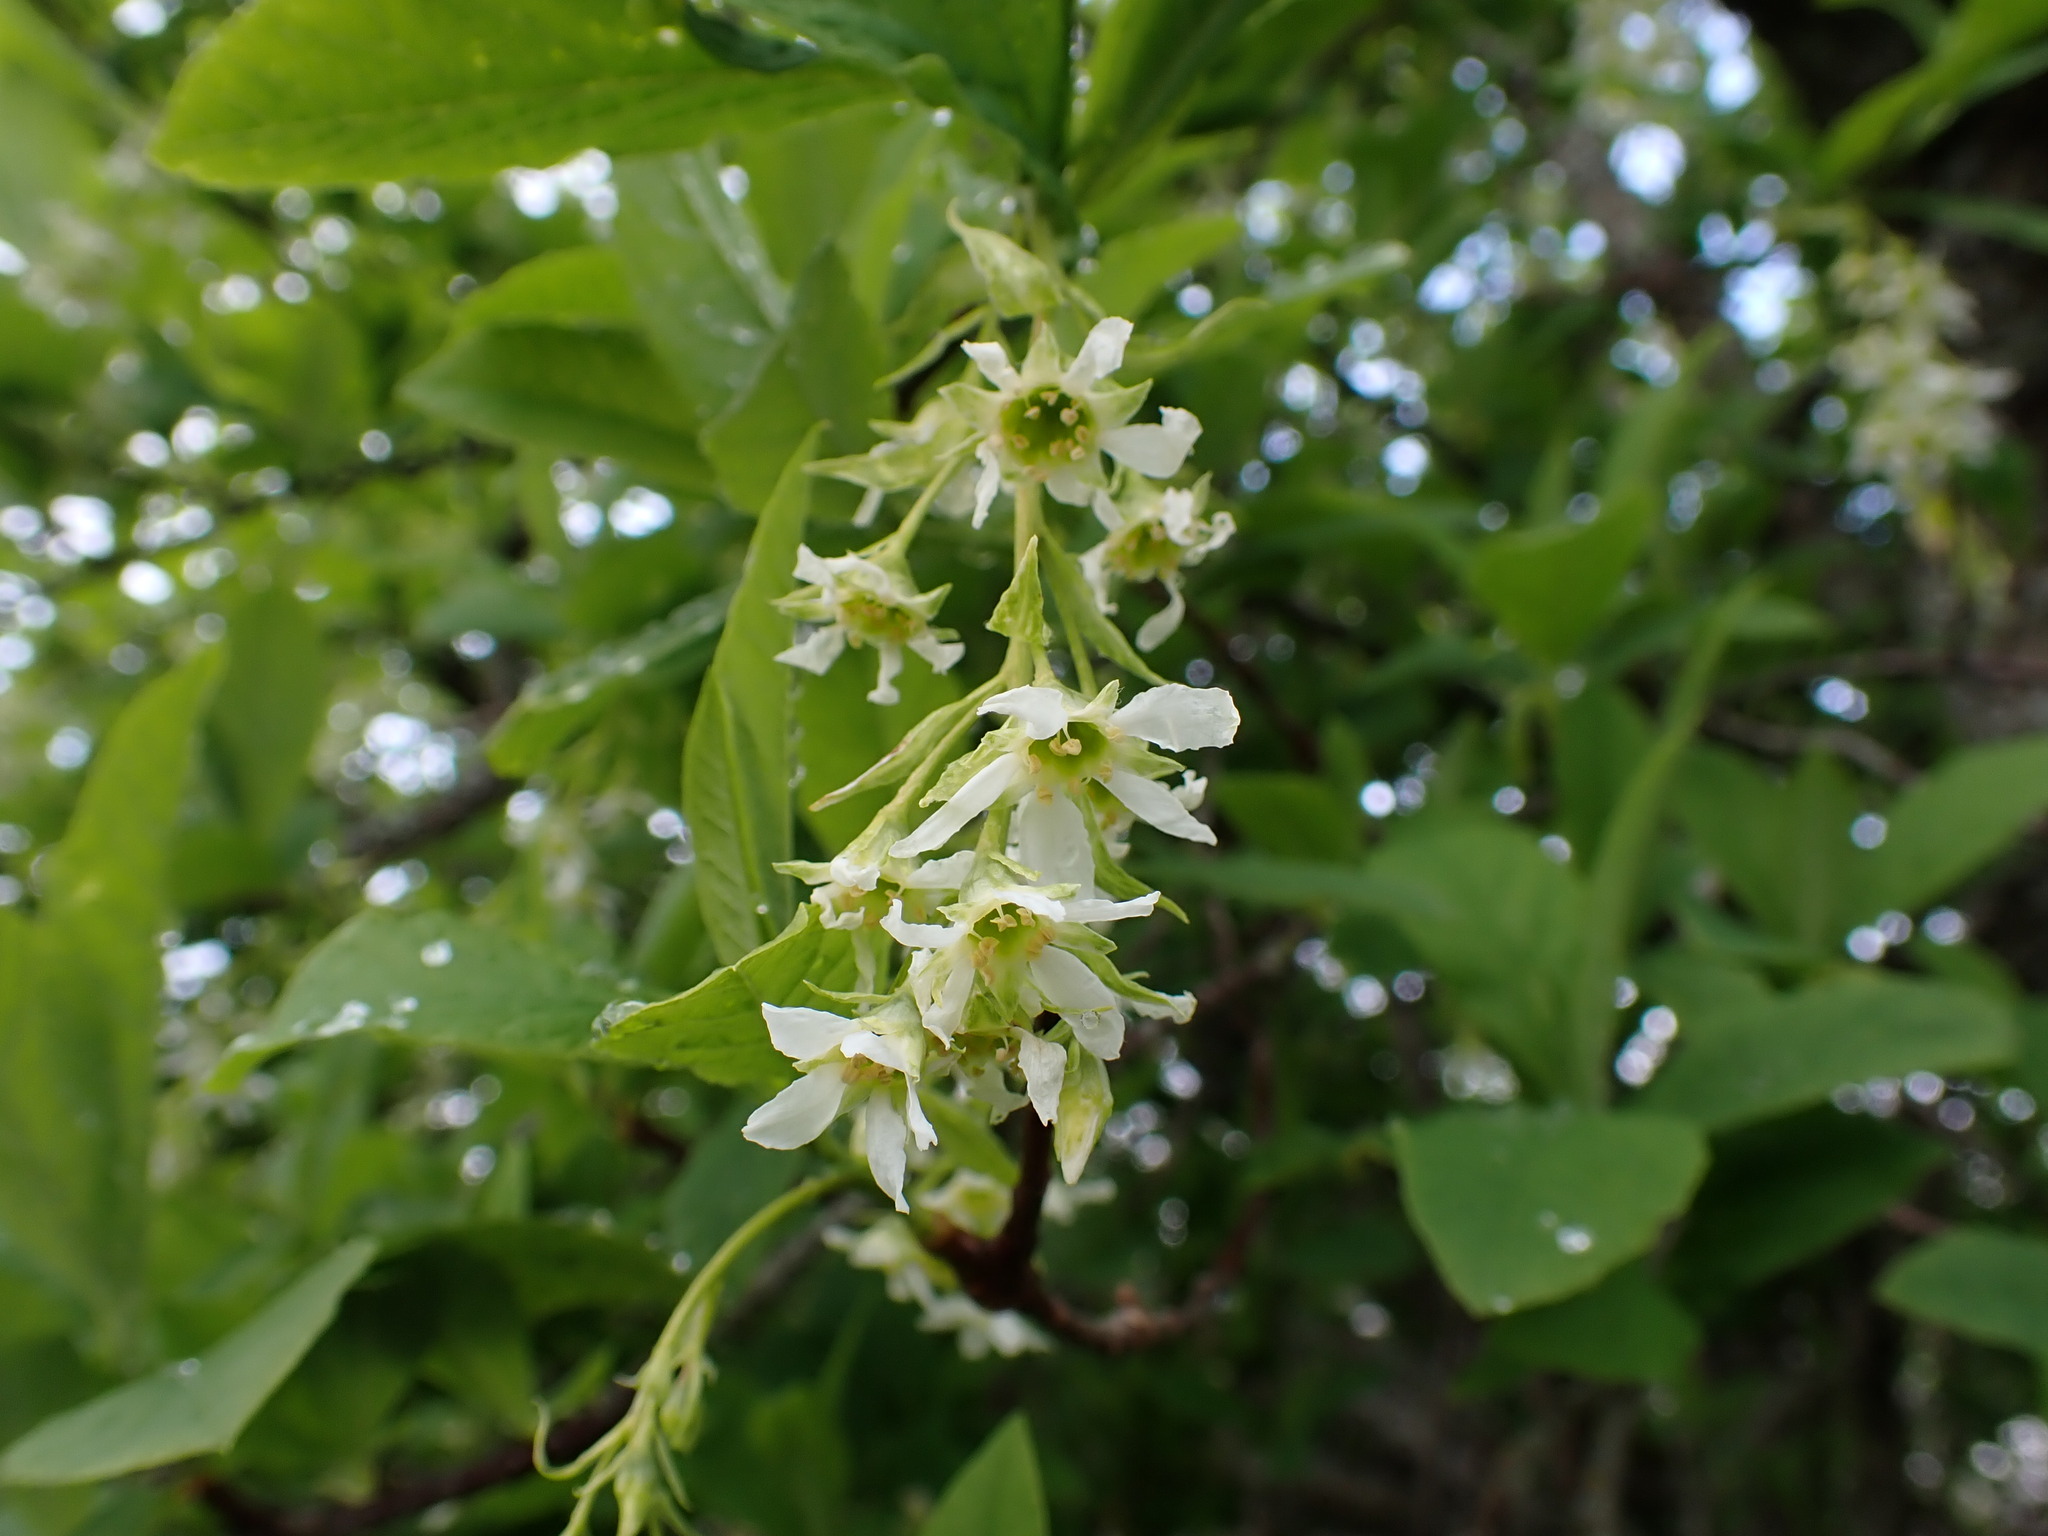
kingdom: Plantae
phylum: Tracheophyta
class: Magnoliopsida
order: Rosales
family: Rosaceae
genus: Oemleria
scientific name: Oemleria cerasiformis
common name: Osoberry
